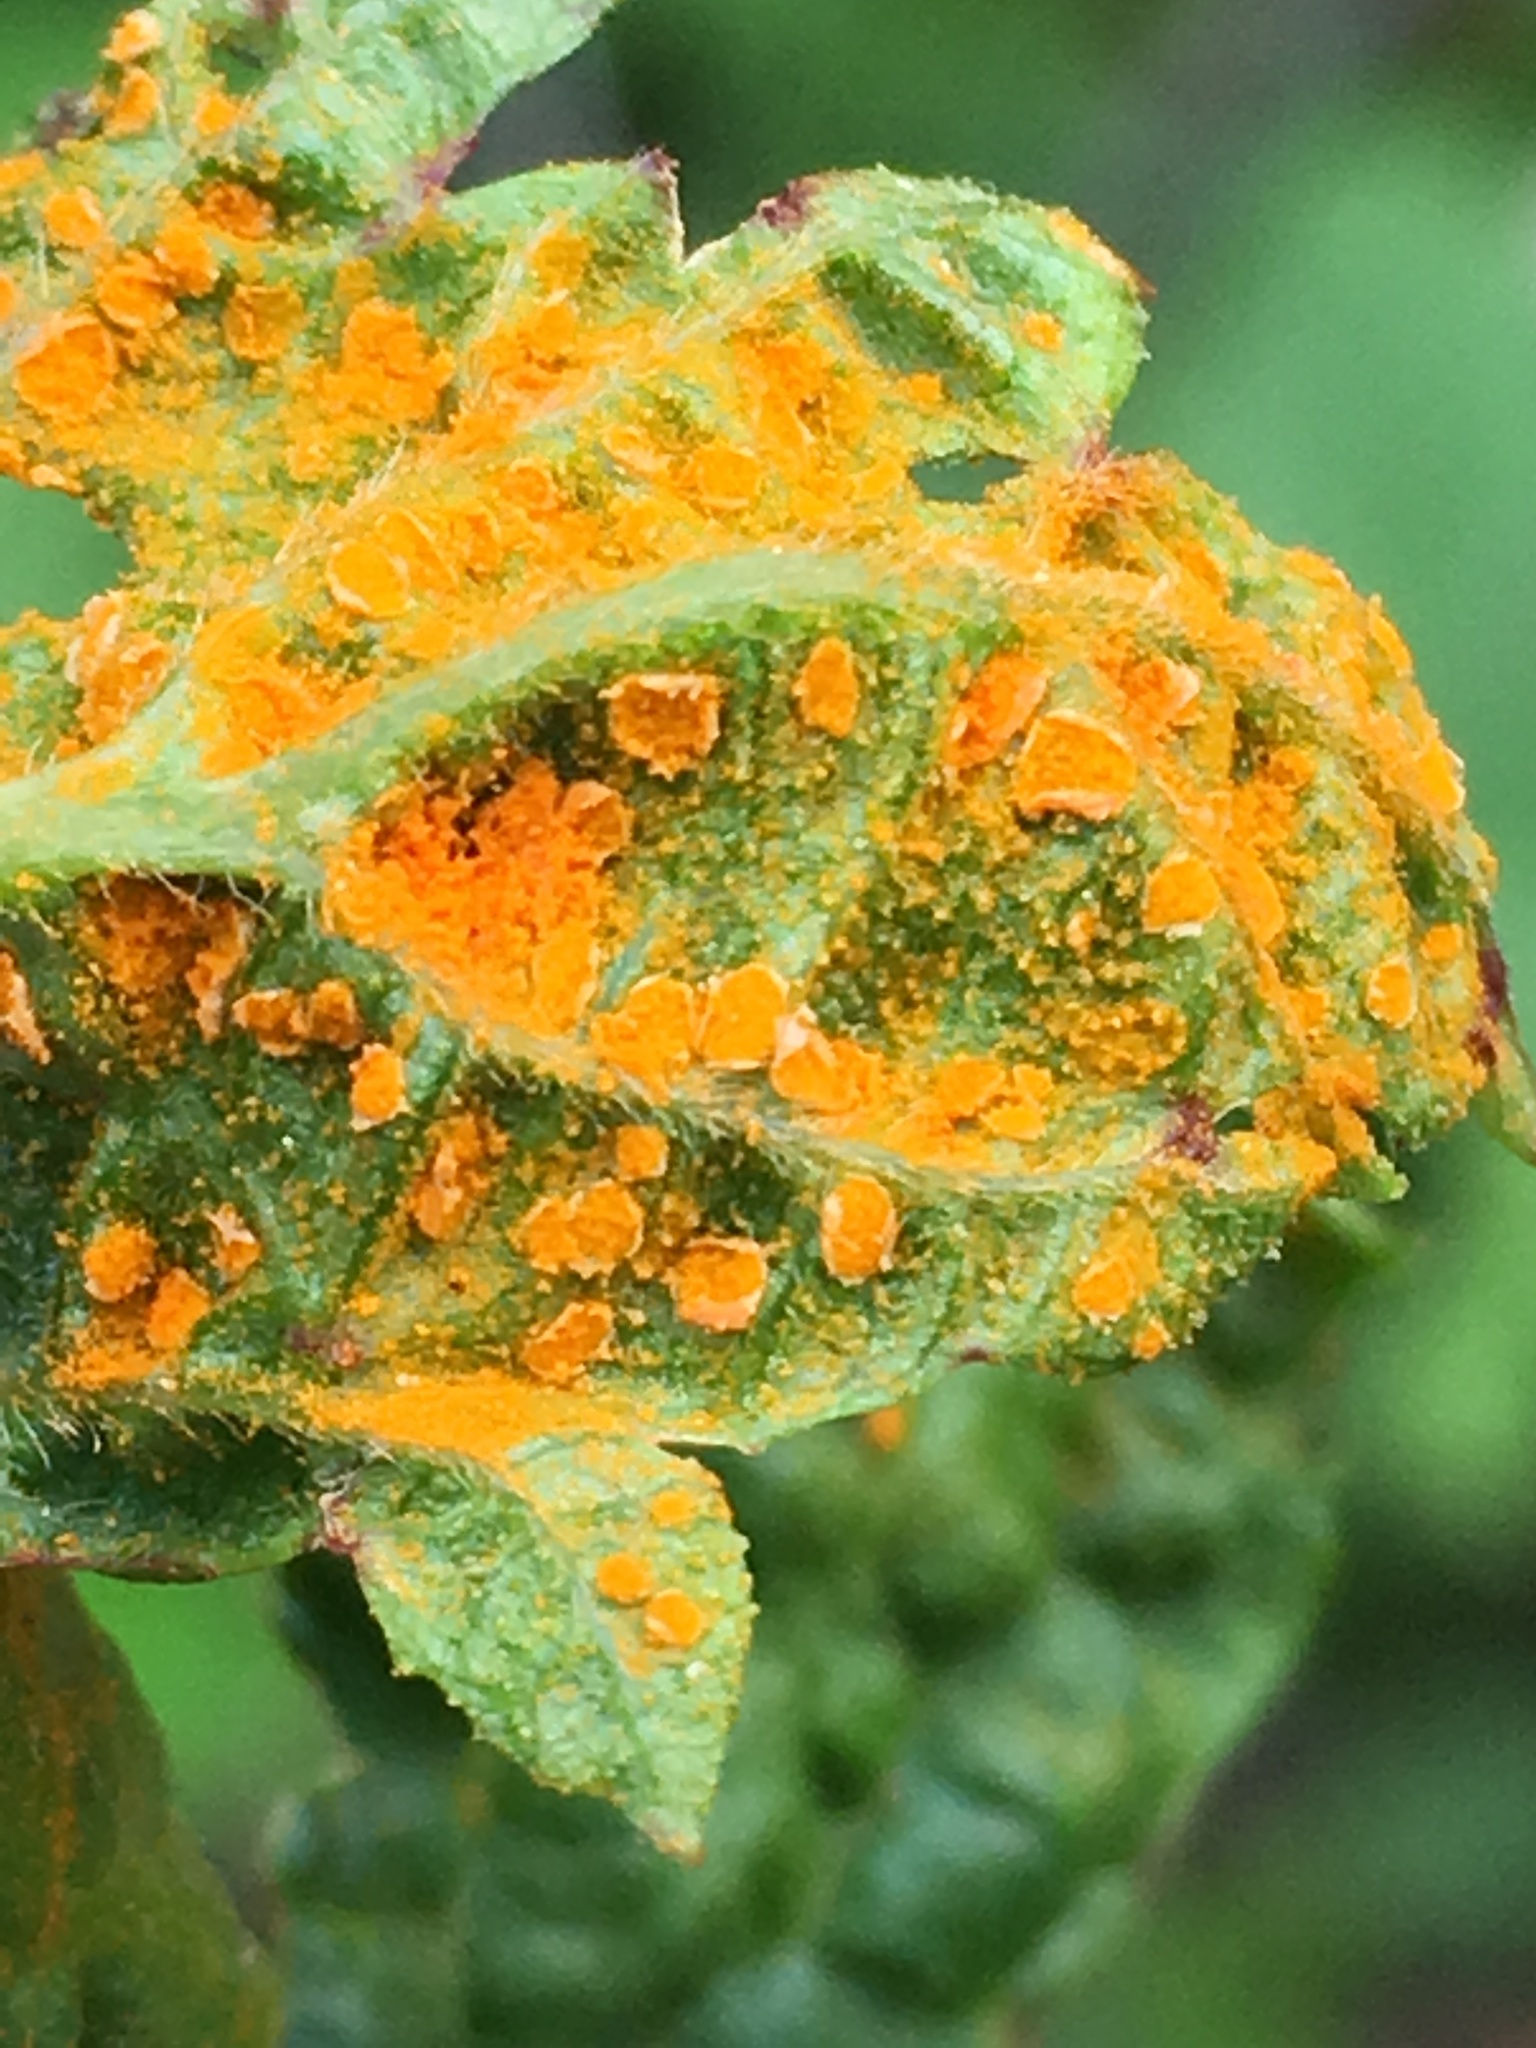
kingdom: Fungi
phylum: Basidiomycota
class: Pucciniomycetes
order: Pucciniales
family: Phragmidiaceae
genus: Arthuriomyces
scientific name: Arthuriomyces peckianus
